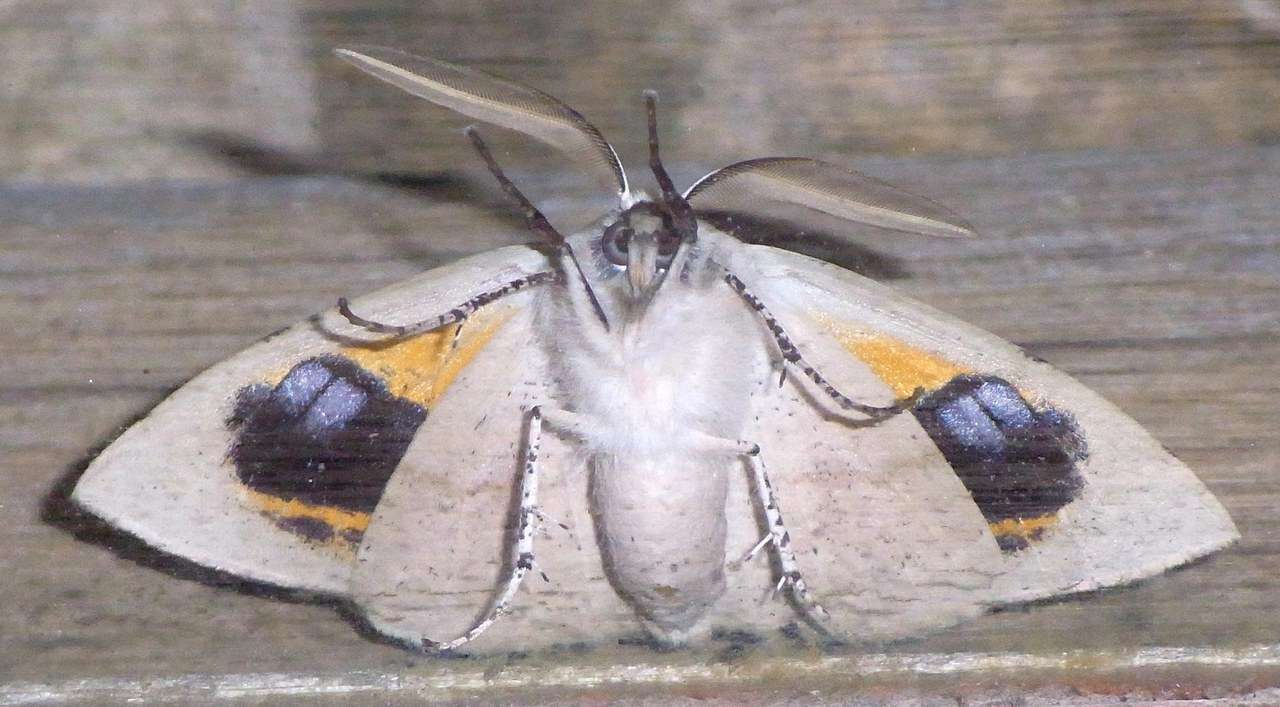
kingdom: Animalia
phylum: Arthropoda
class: Insecta
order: Lepidoptera
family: Geometridae
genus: Gastrophora
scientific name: Gastrophora henricaria
